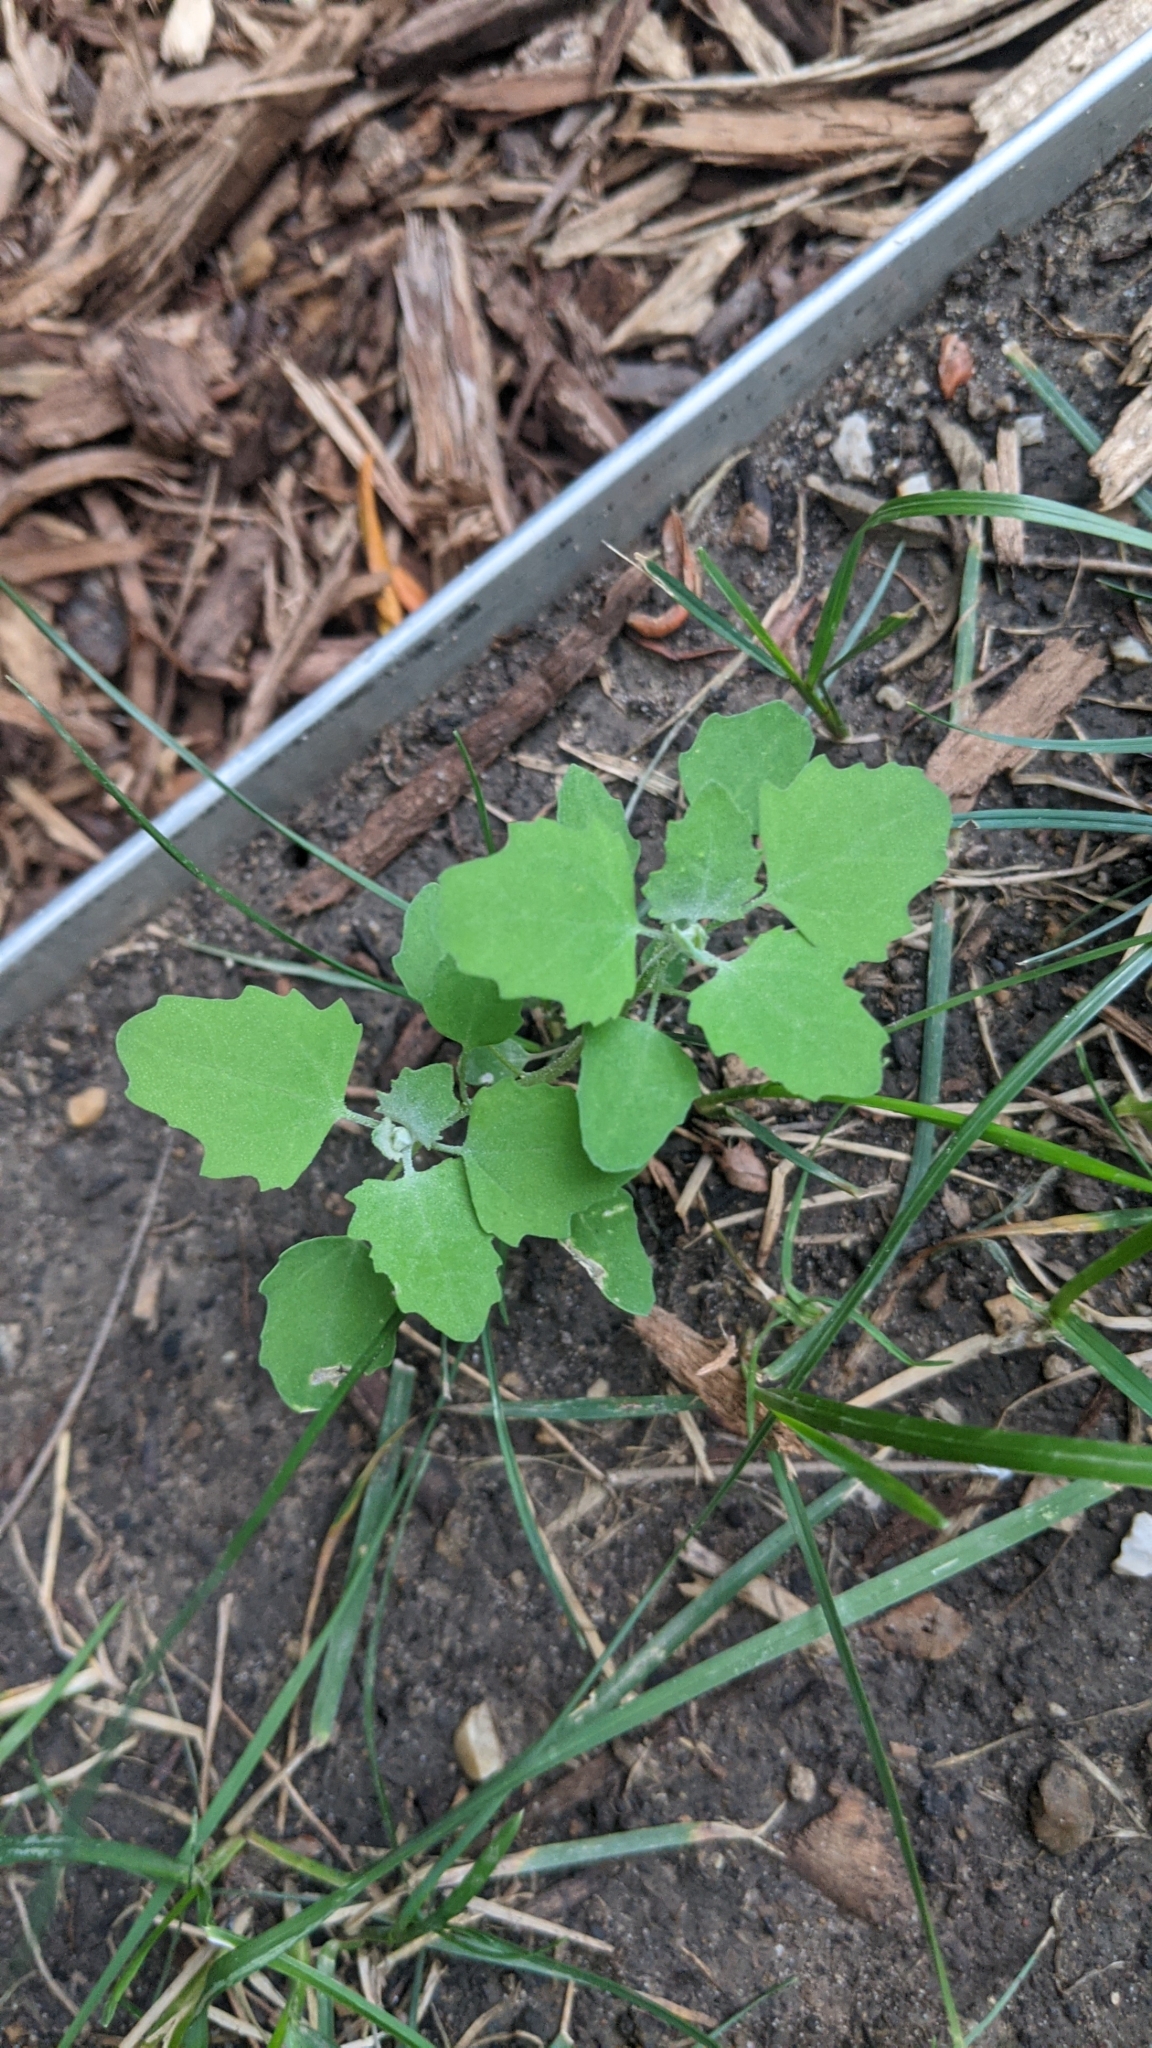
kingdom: Plantae
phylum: Tracheophyta
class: Magnoliopsida
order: Caryophyllales
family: Amaranthaceae
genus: Chenopodium
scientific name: Chenopodium album
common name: Fat-hen
